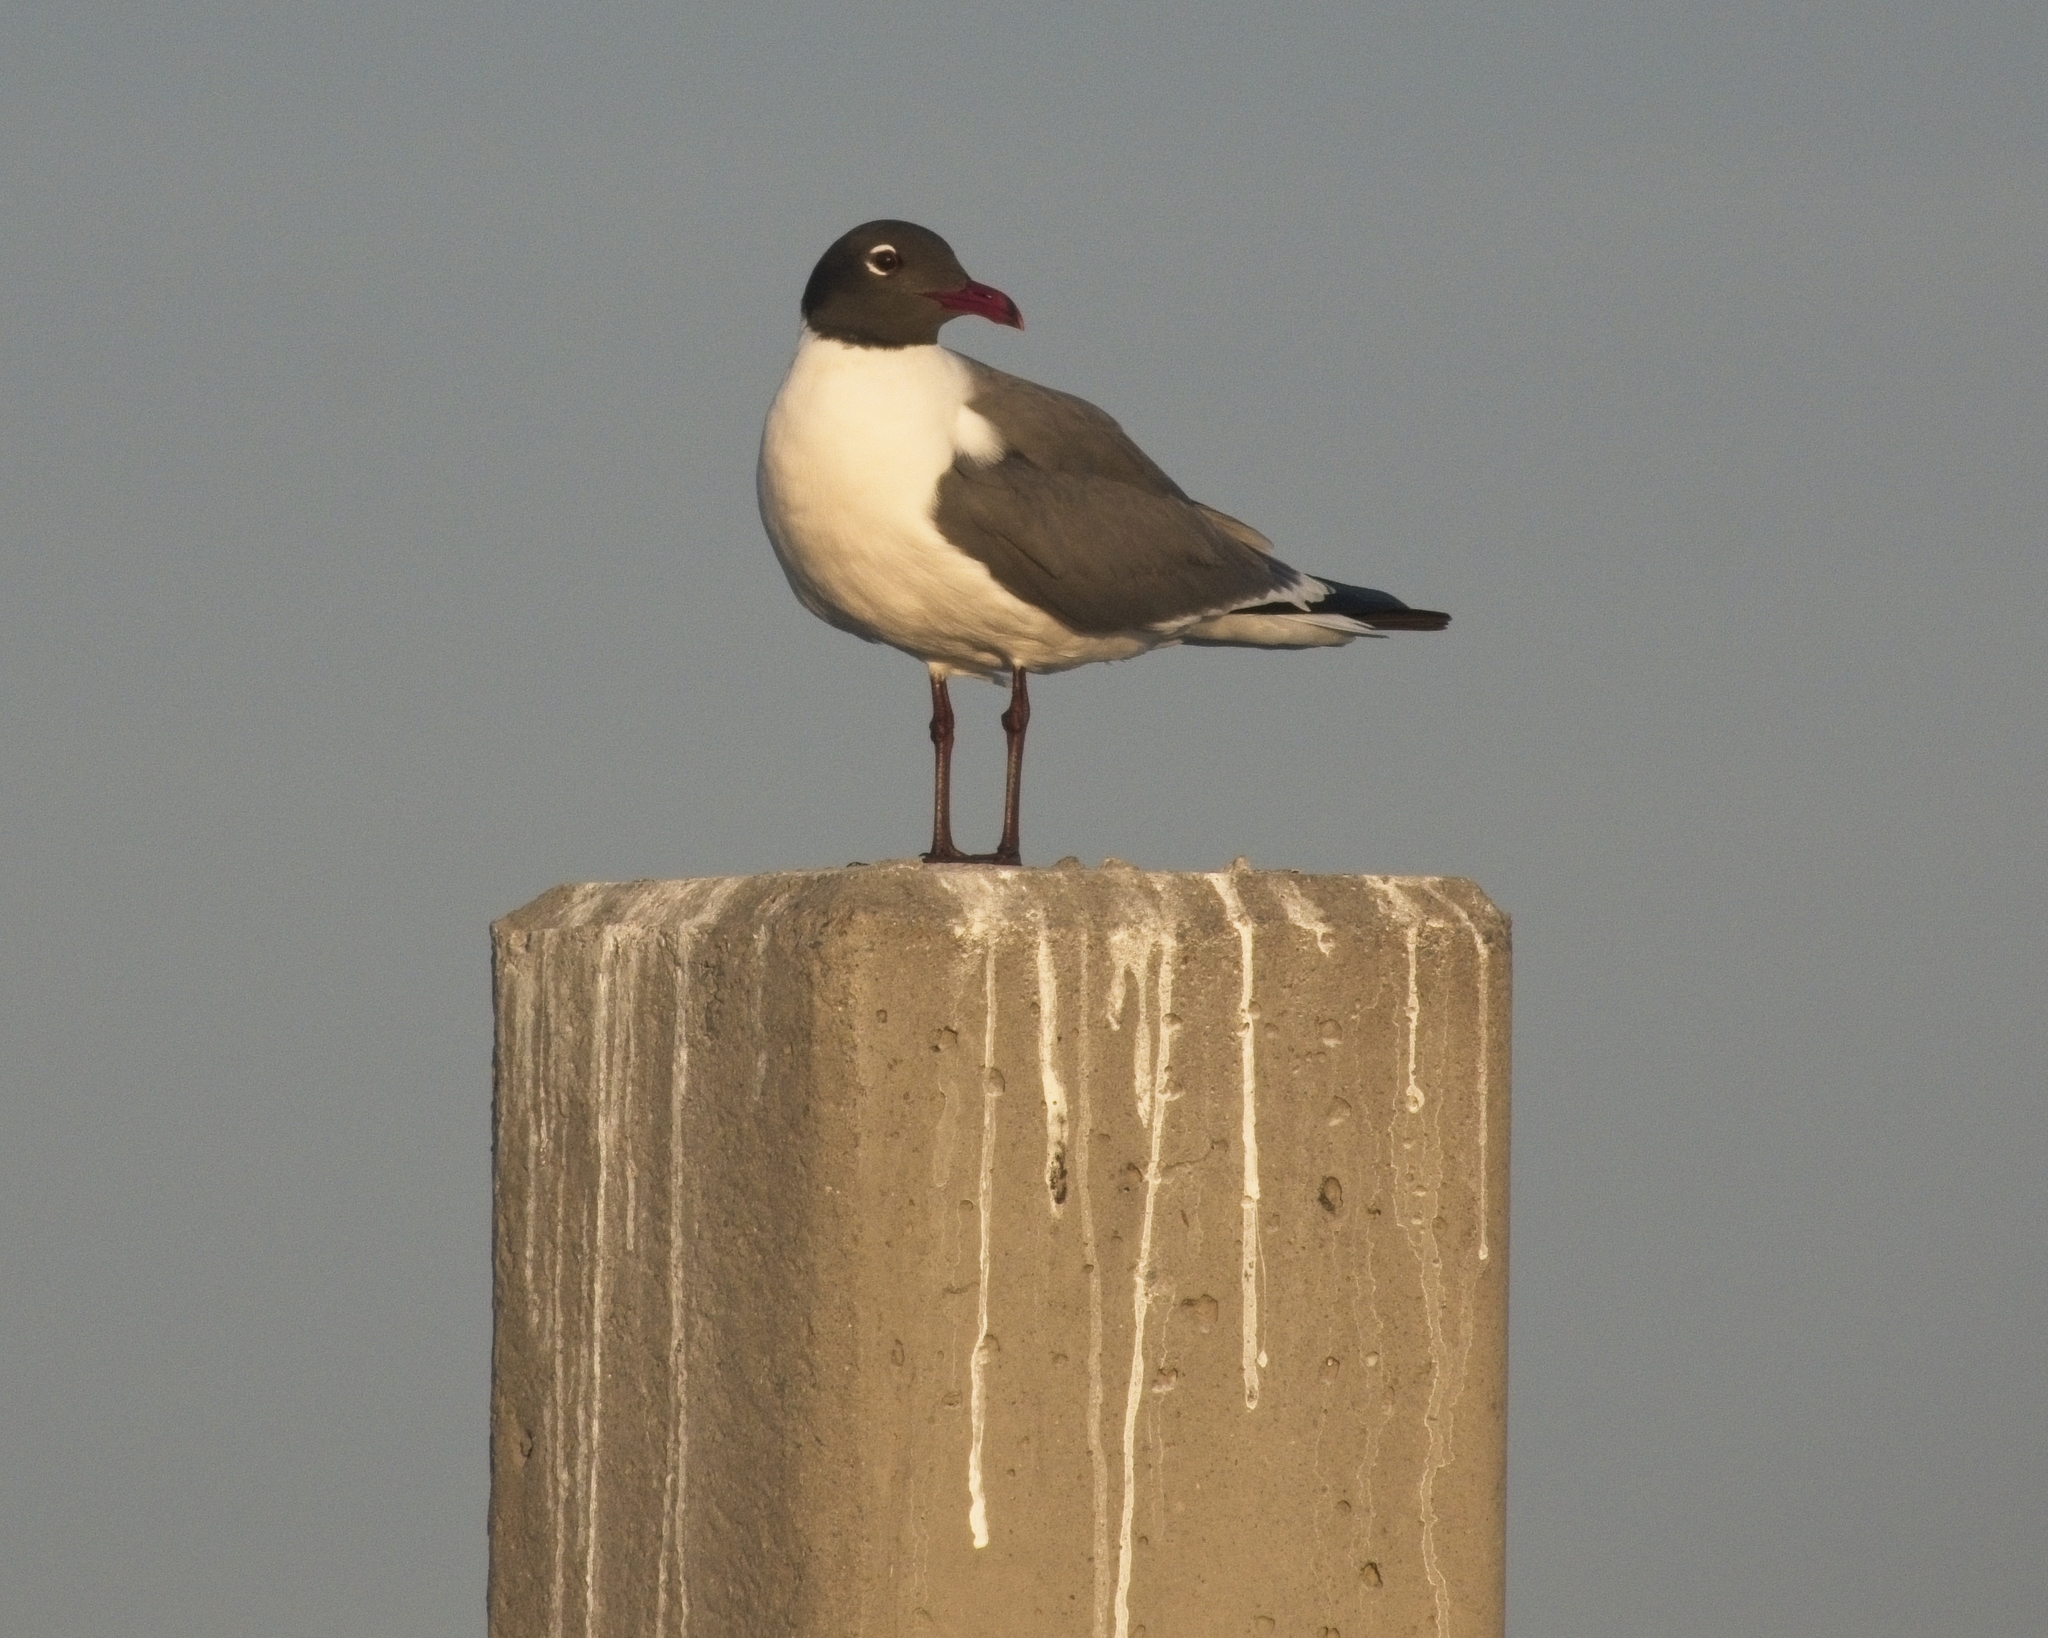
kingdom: Animalia
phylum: Chordata
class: Aves
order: Charadriiformes
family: Laridae
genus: Leucophaeus
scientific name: Leucophaeus atricilla
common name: Laughing gull
